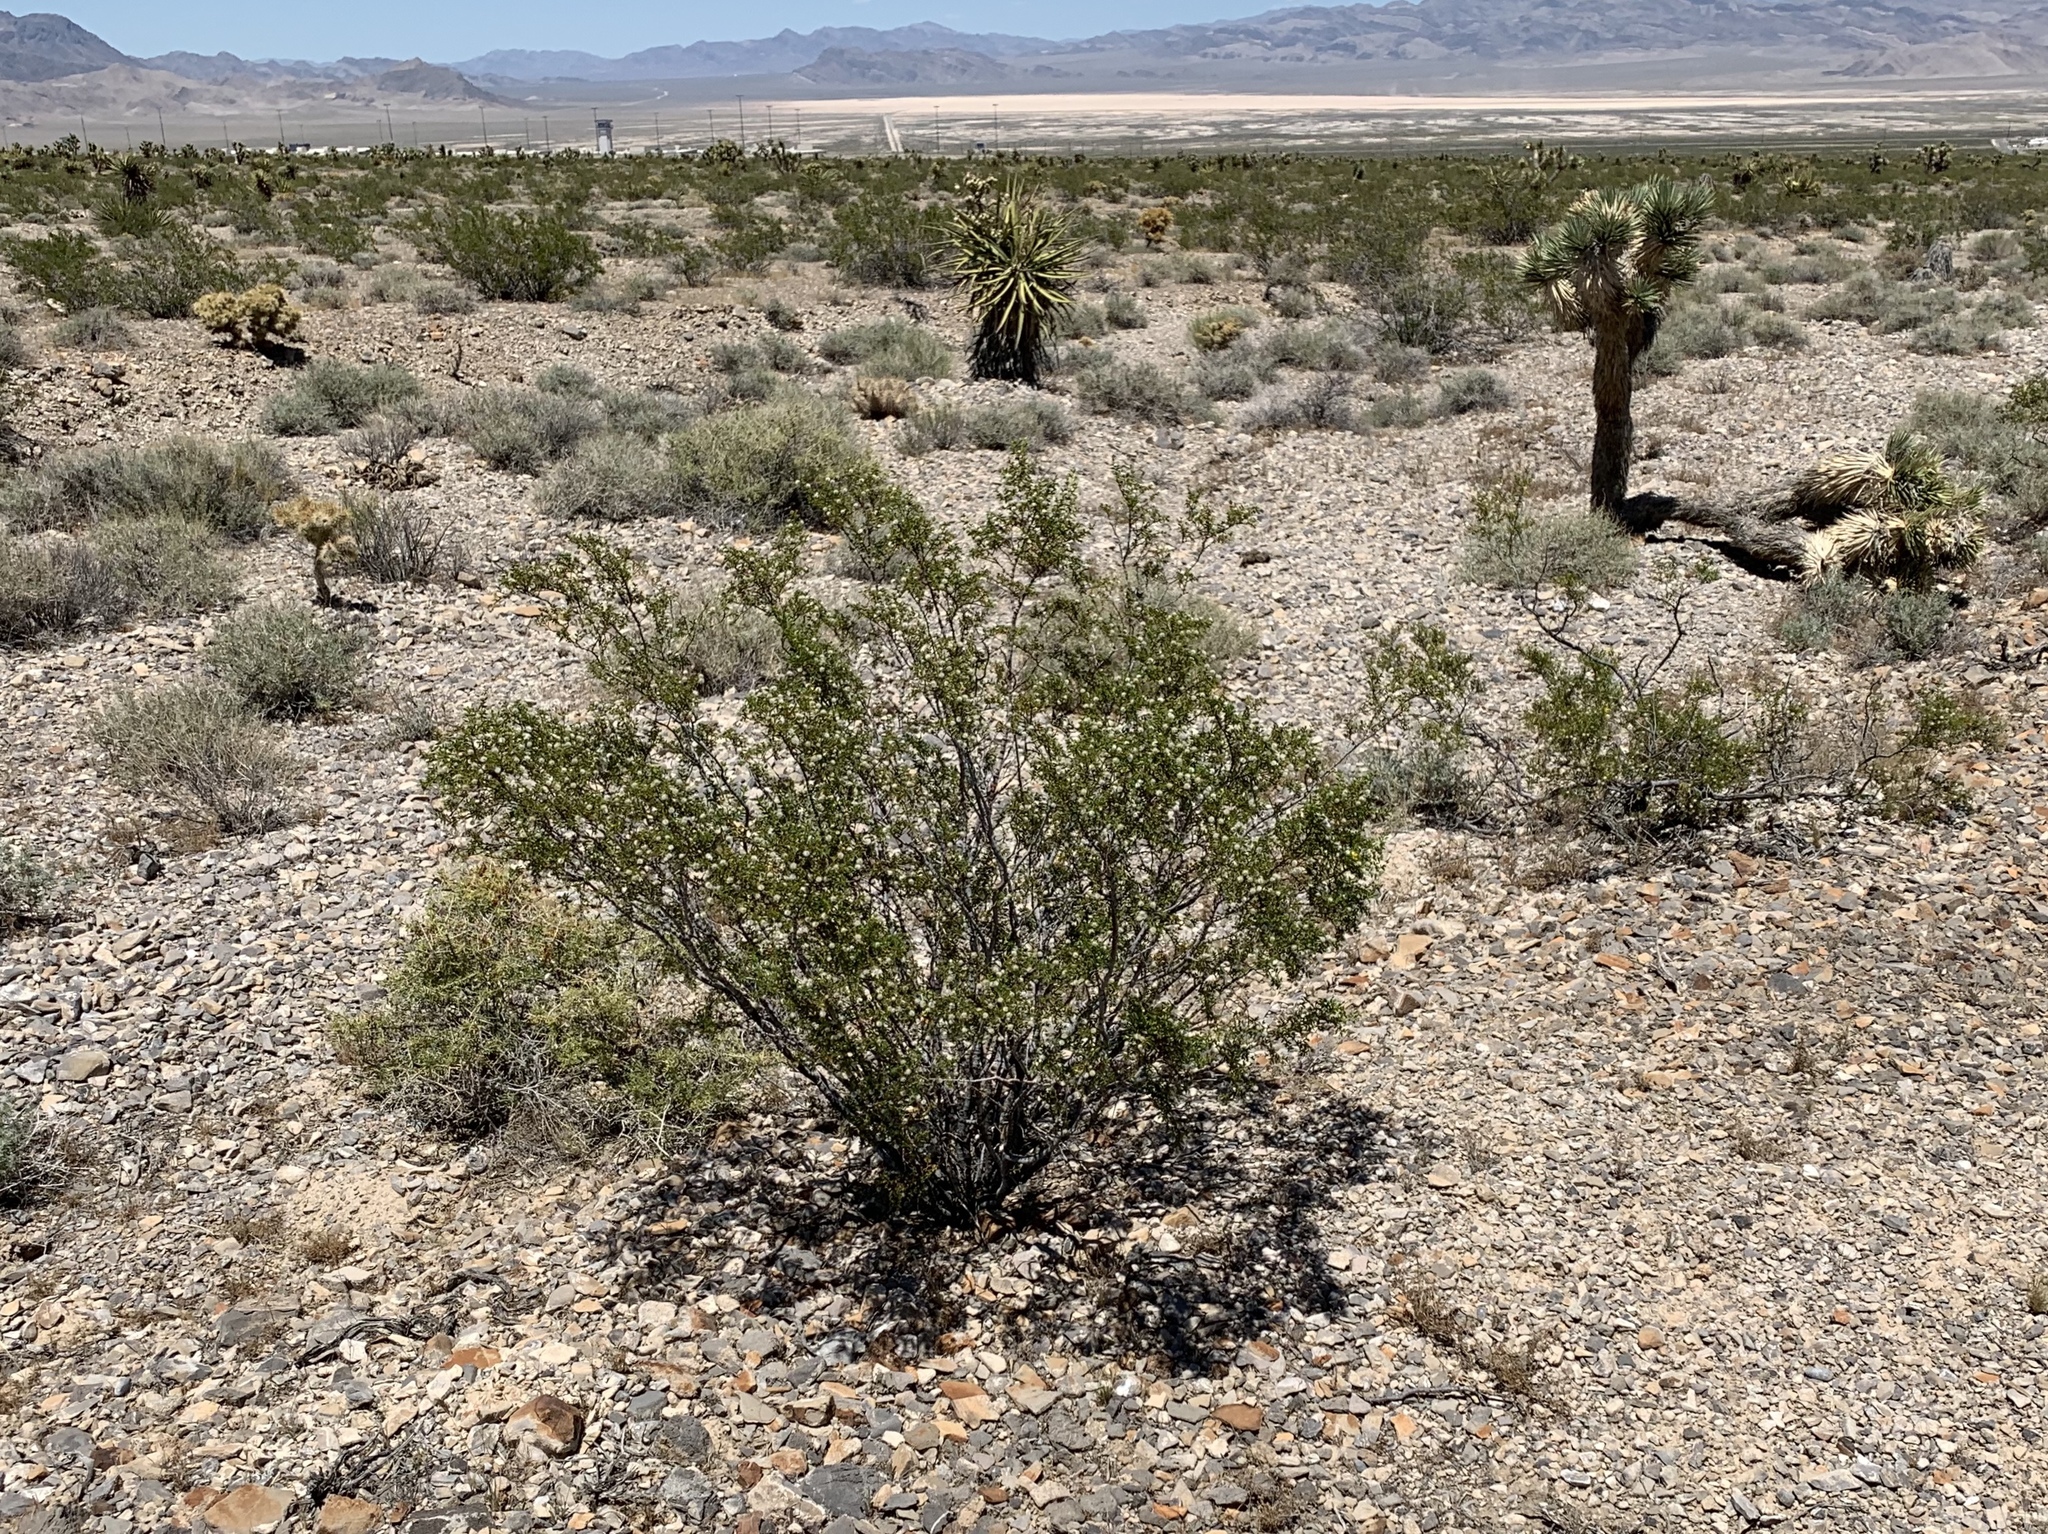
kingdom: Plantae
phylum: Tracheophyta
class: Magnoliopsida
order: Zygophyllales
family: Zygophyllaceae
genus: Larrea
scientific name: Larrea tridentata
